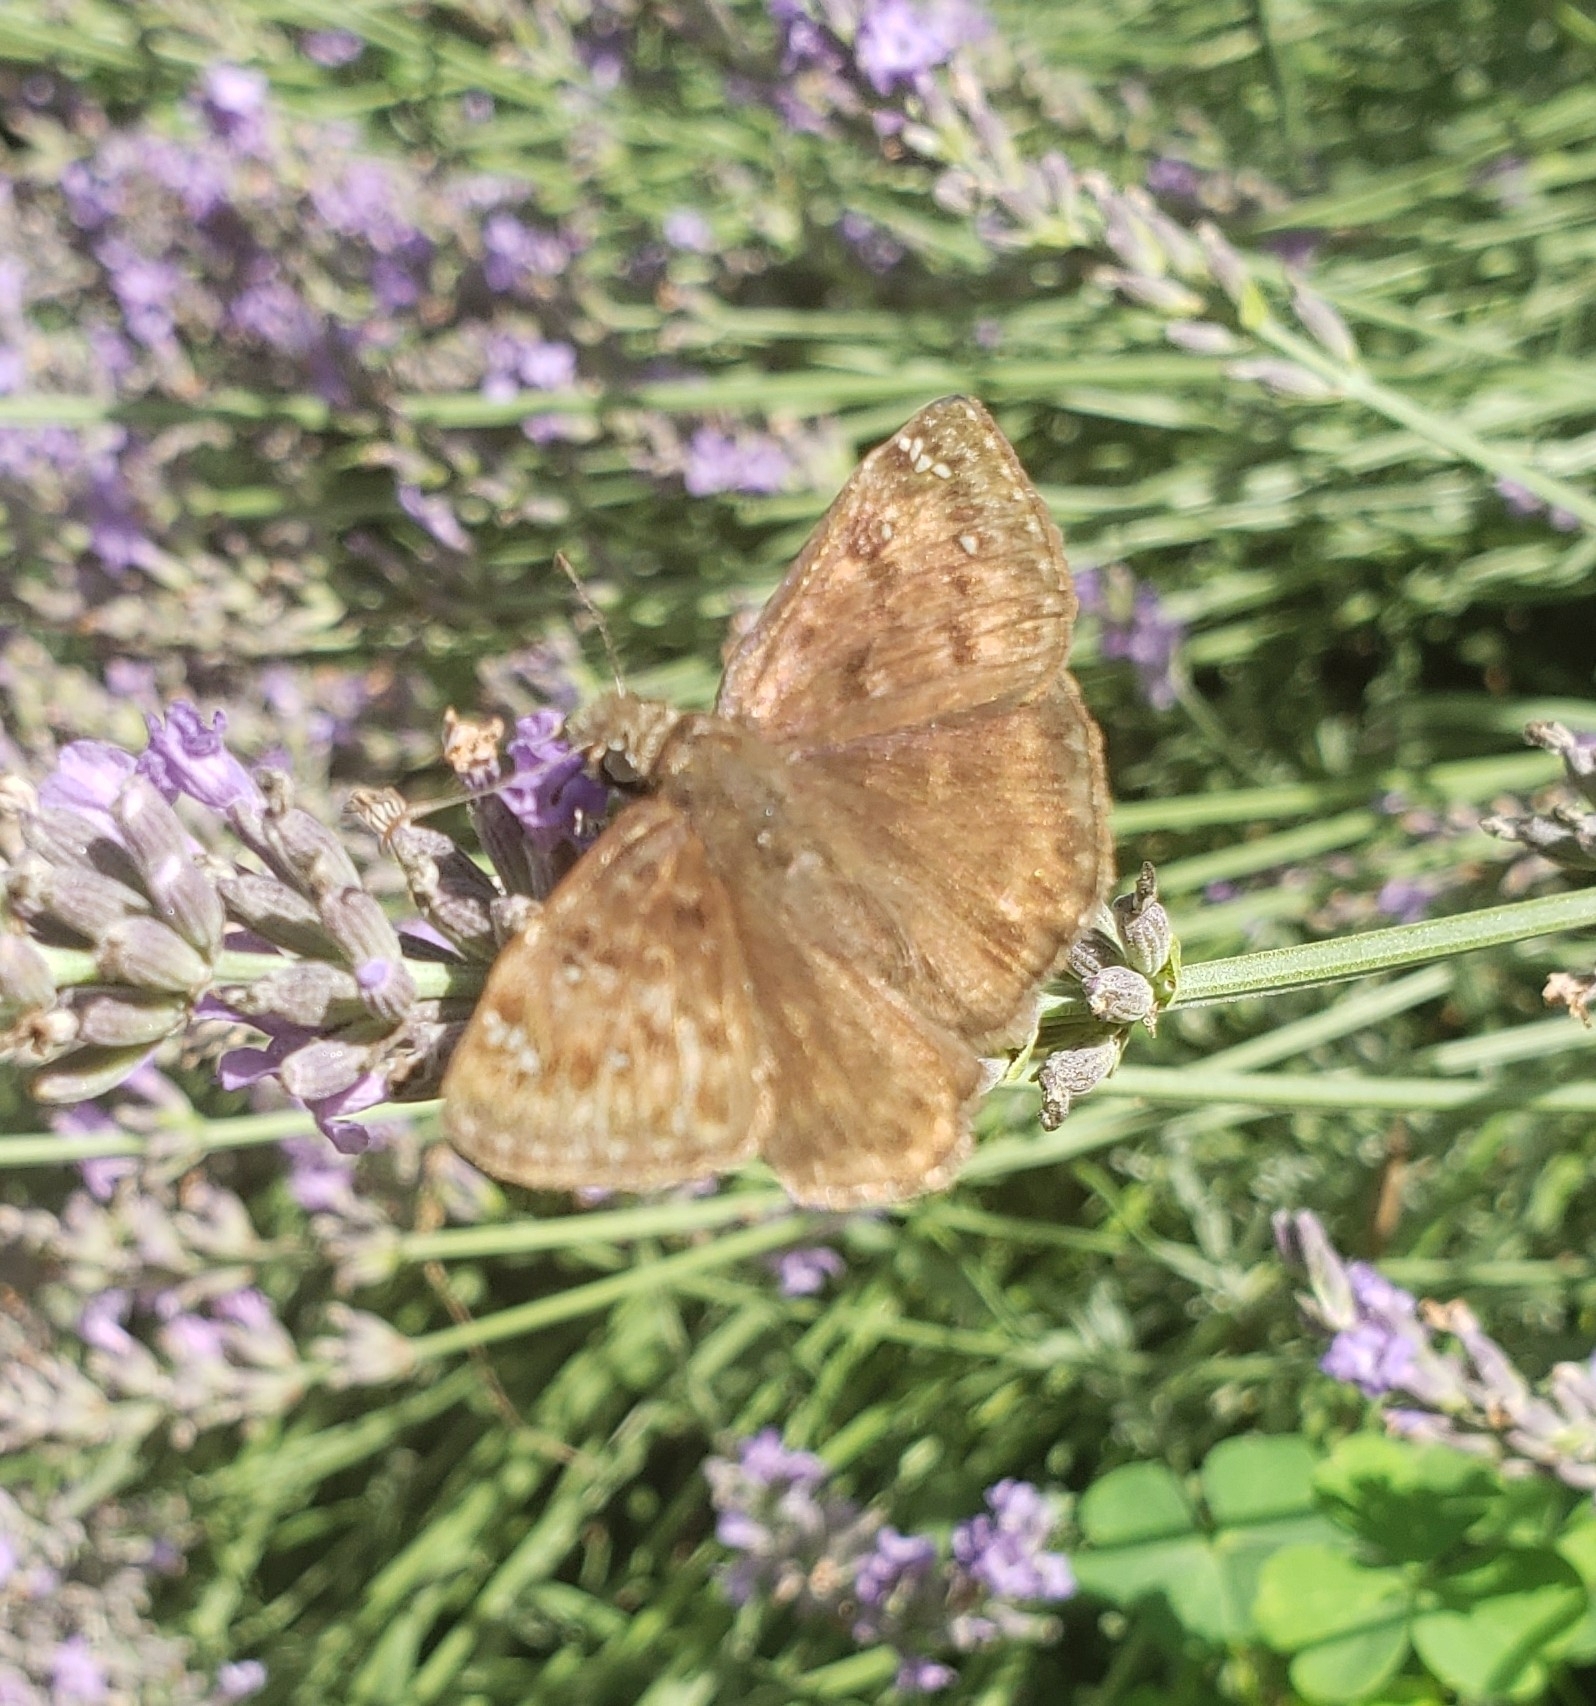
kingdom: Animalia
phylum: Arthropoda
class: Insecta
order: Lepidoptera
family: Hesperiidae
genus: Erynnis
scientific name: Erynnis horatius
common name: Horace's duskywing
